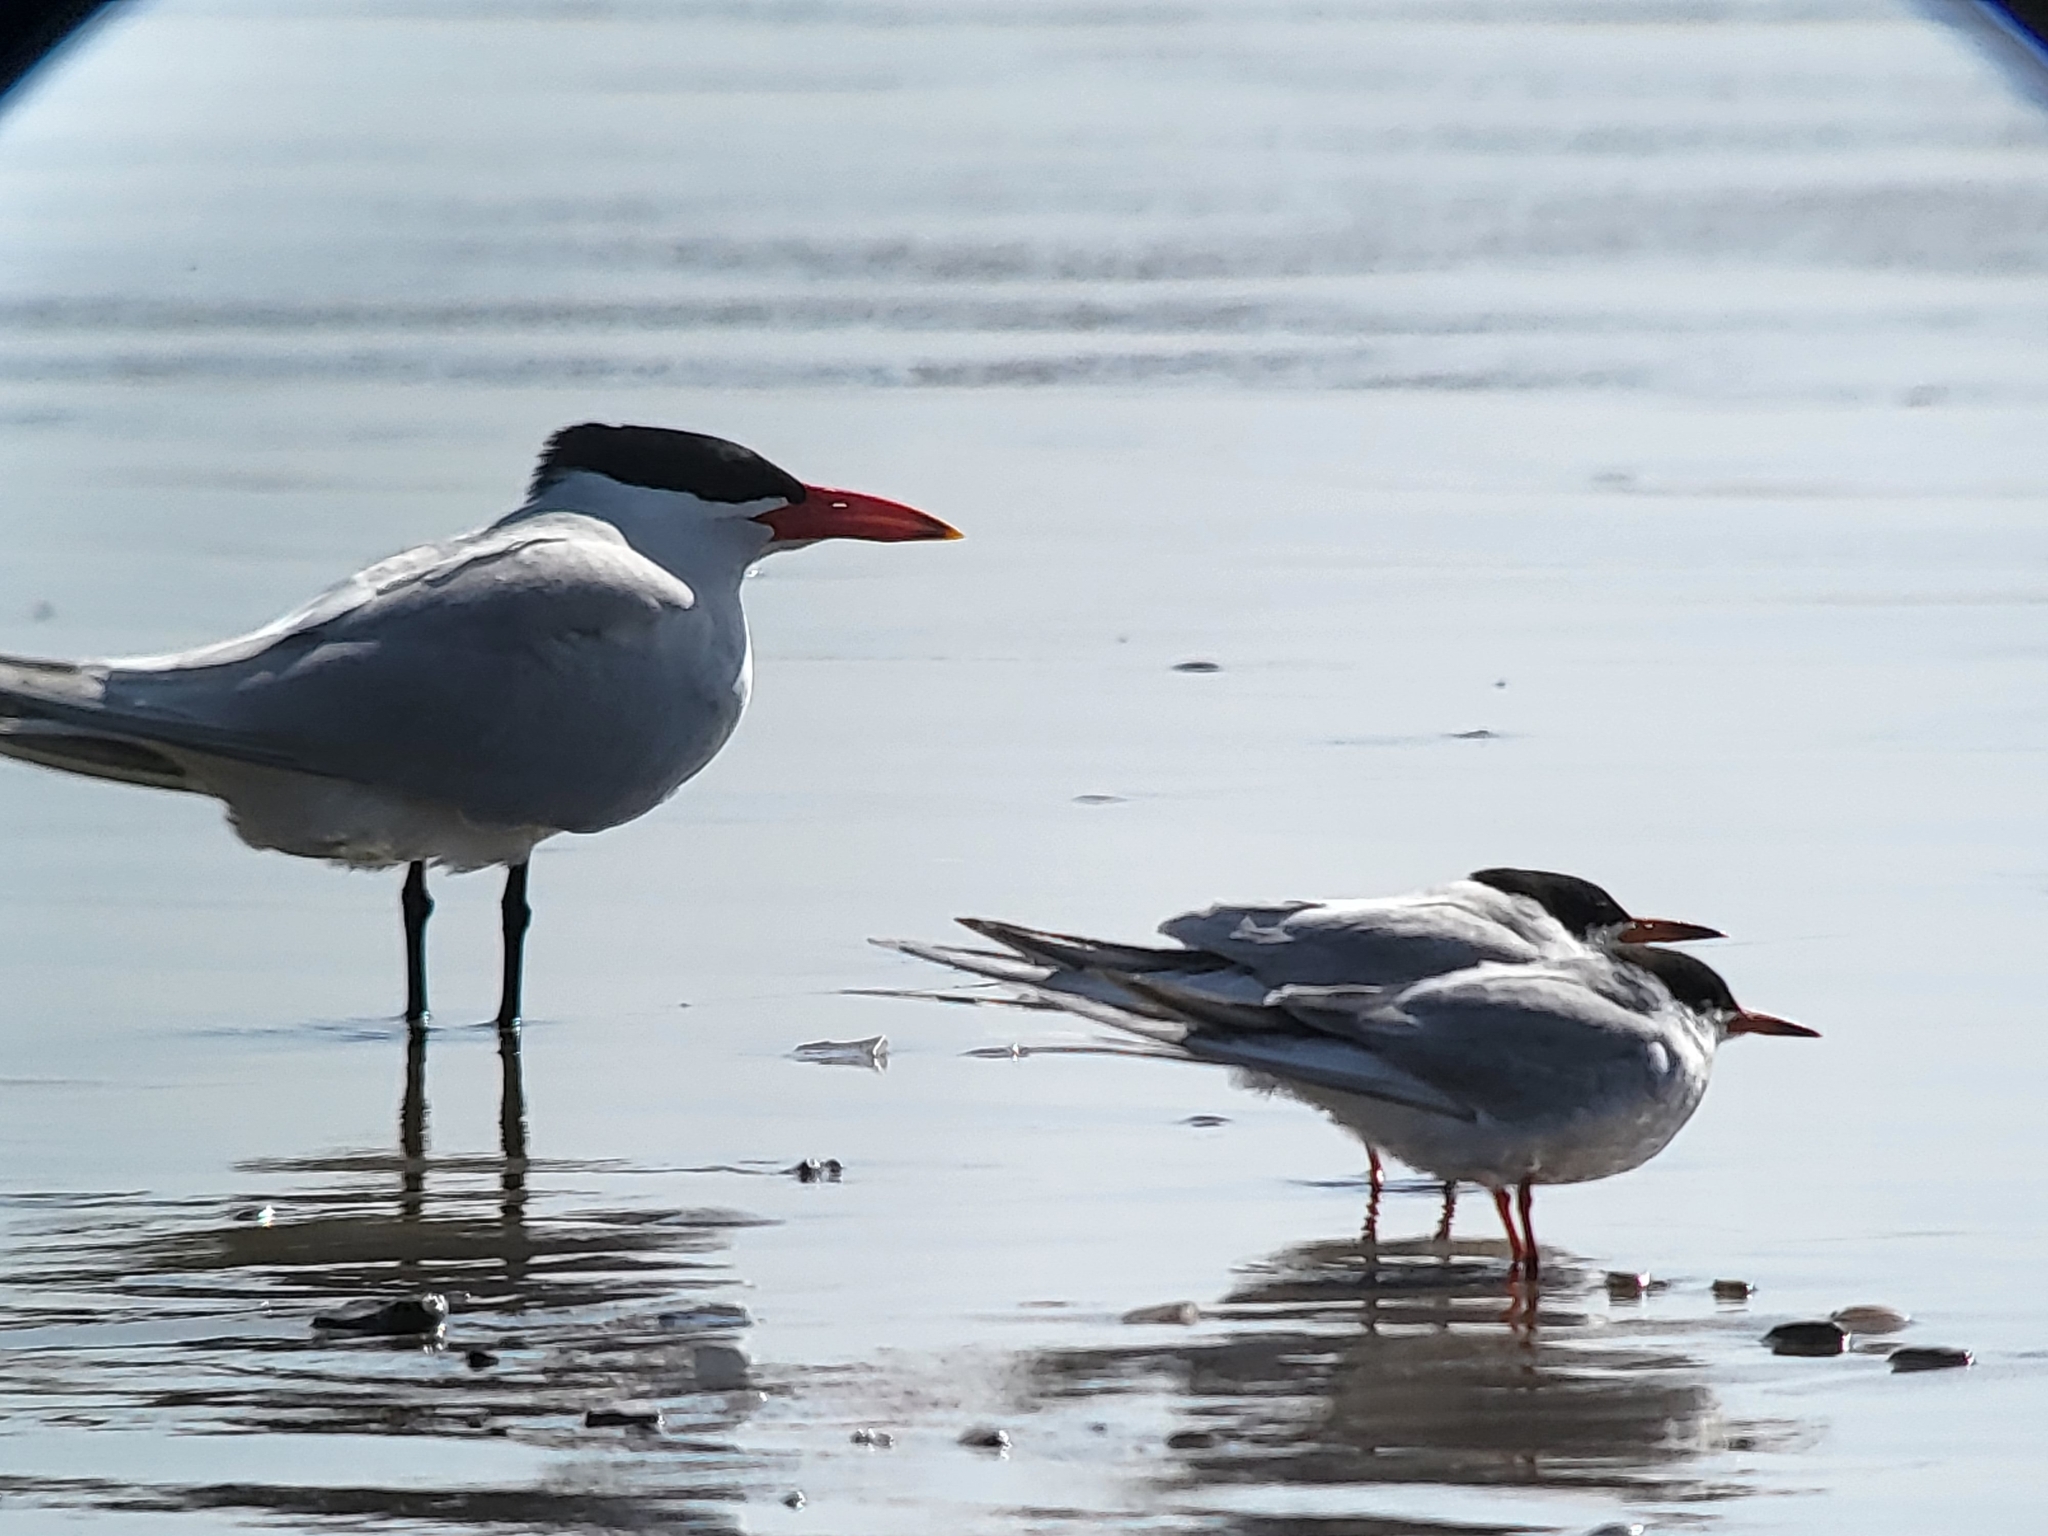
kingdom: Animalia
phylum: Chordata
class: Aves
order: Charadriiformes
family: Laridae
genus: Hydroprogne
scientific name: Hydroprogne caspia
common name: Caspian tern
